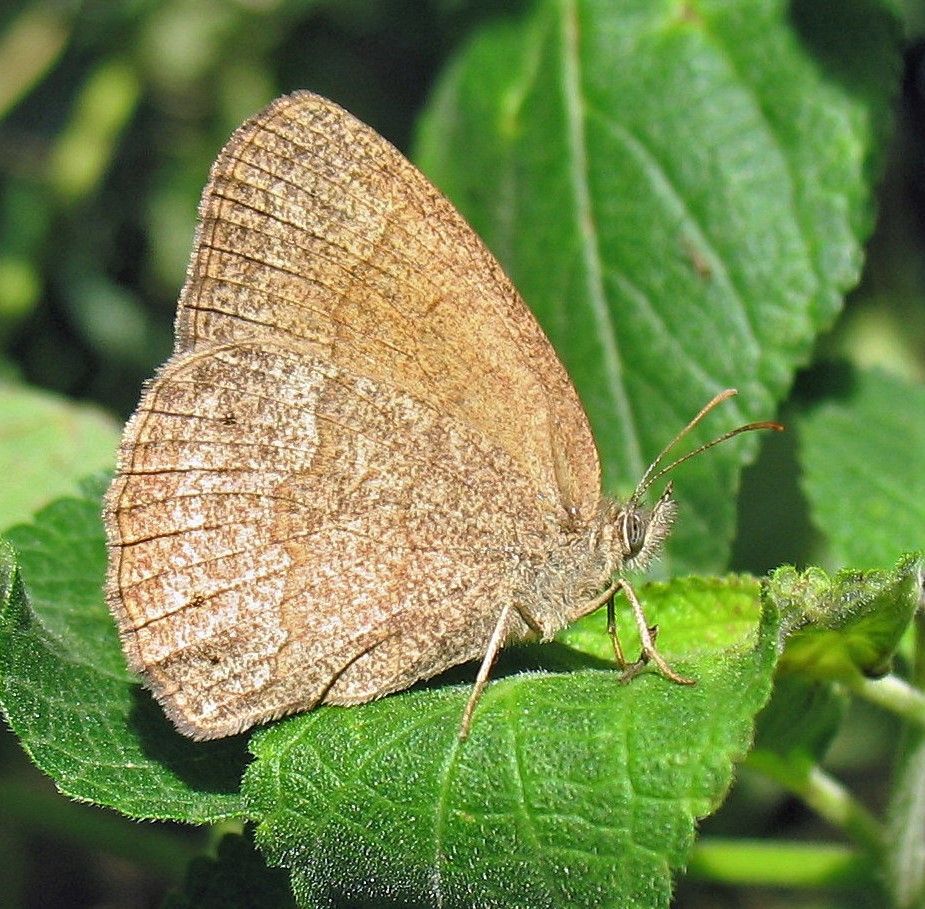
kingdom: Animalia
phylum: Arthropoda
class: Insecta
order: Lepidoptera
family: Nymphalidae
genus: Yphthimoides
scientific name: Yphthimoides celmis
